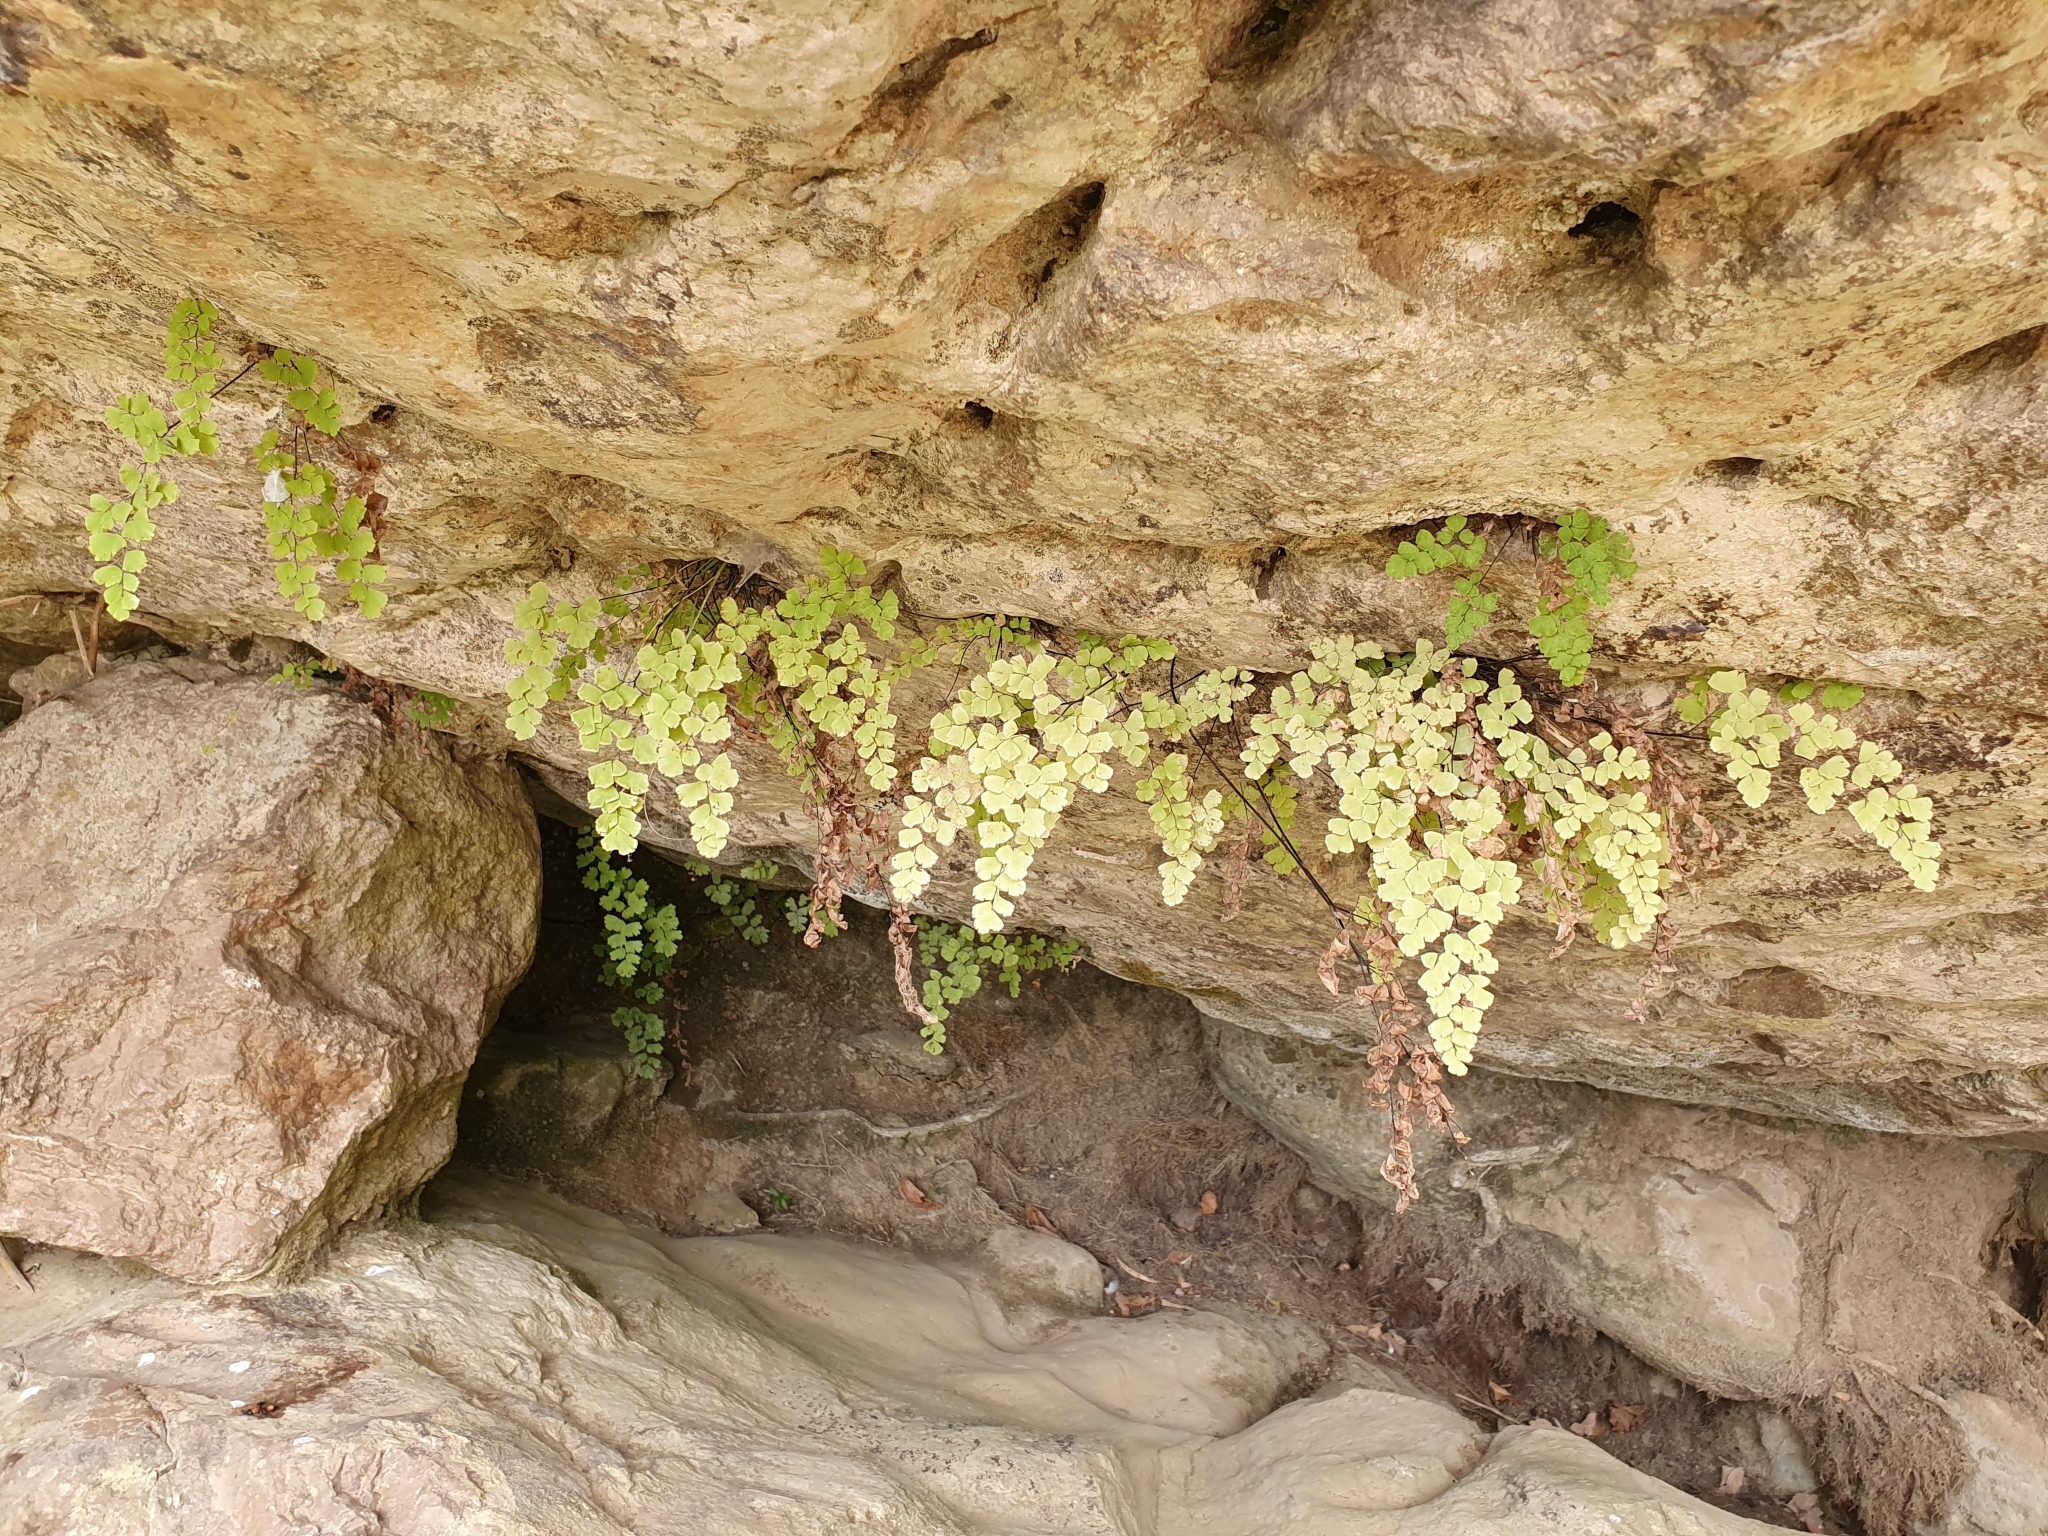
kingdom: Plantae
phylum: Tracheophyta
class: Polypodiopsida
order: Polypodiales
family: Pteridaceae
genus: Adiantum
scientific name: Adiantum capillus-veneris
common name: Maidenhair fern
